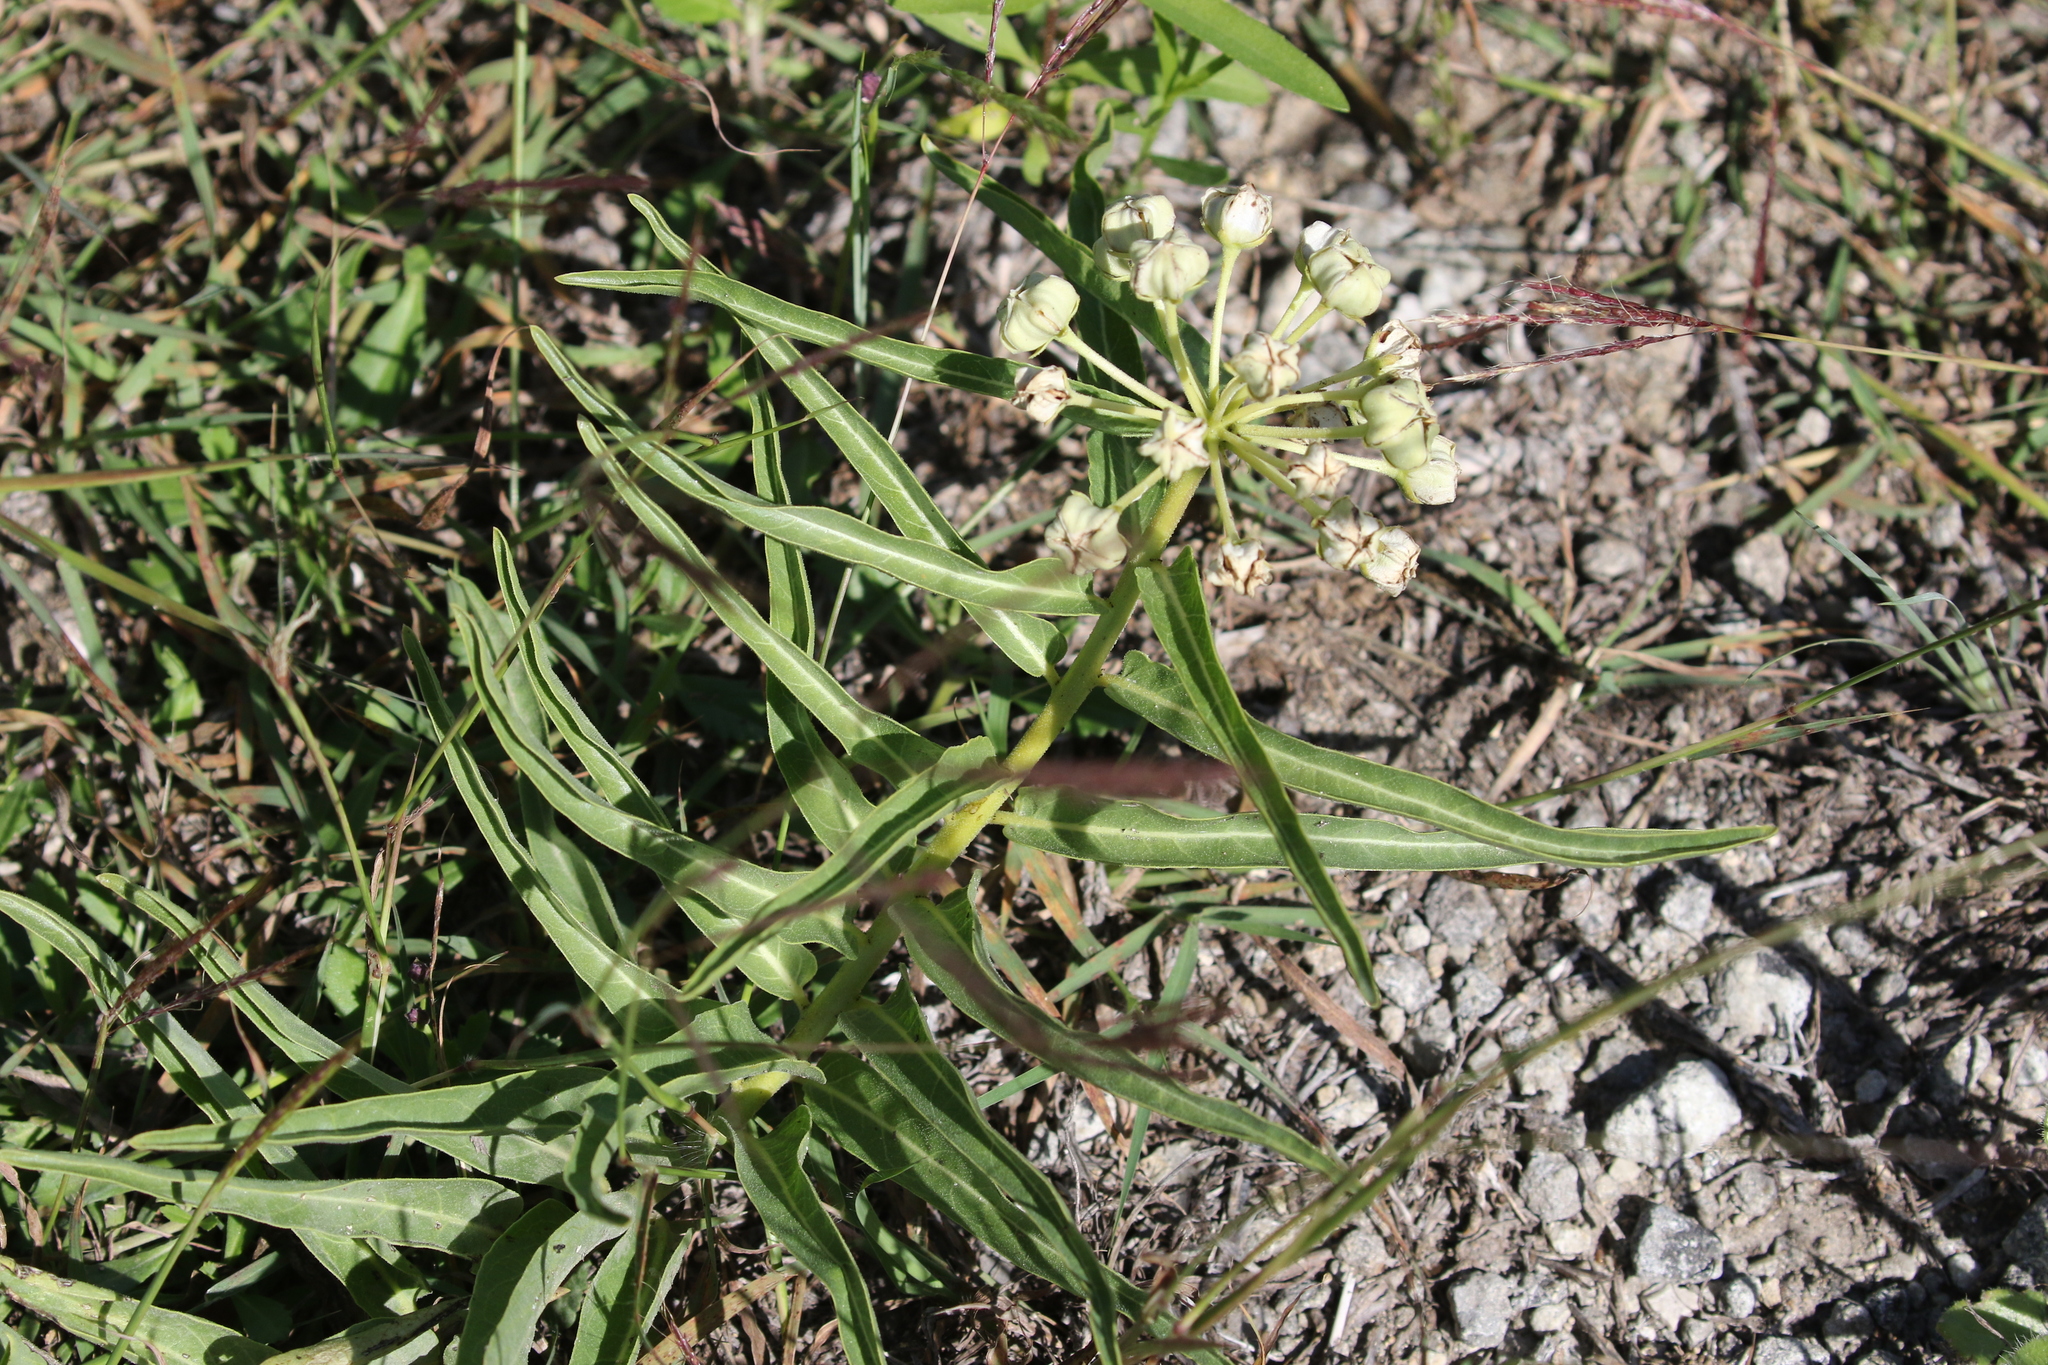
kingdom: Plantae
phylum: Tracheophyta
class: Magnoliopsida
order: Gentianales
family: Apocynaceae
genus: Asclepias
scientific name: Asclepias asperula
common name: Antelope horns
